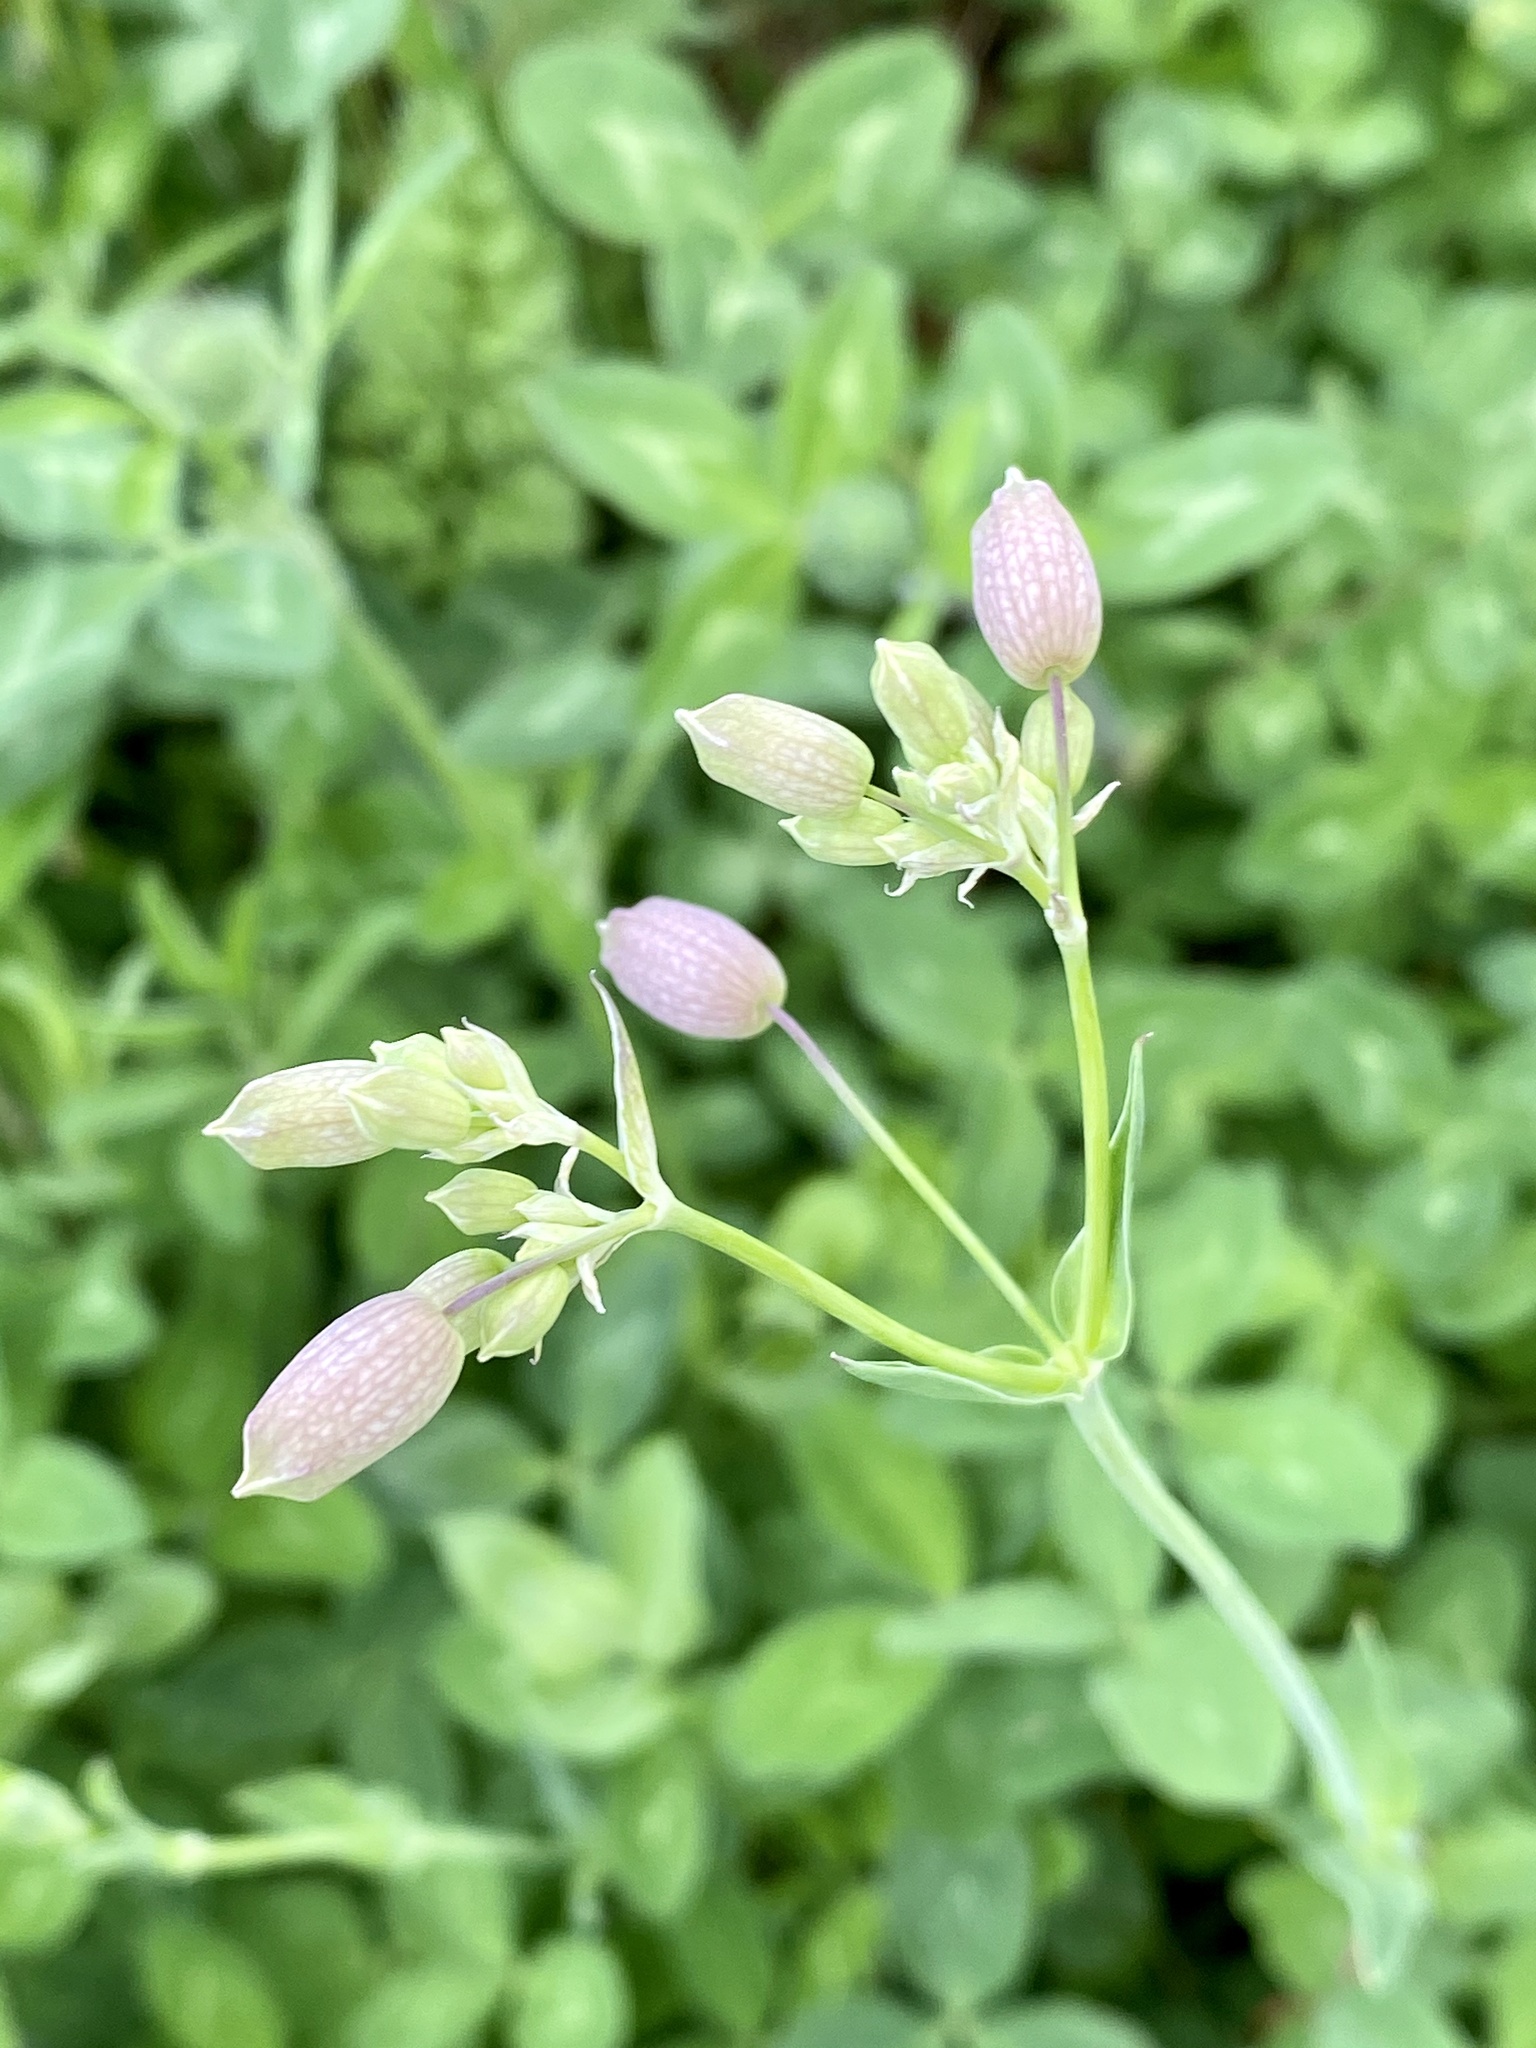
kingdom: Plantae
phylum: Tracheophyta
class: Magnoliopsida
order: Caryophyllales
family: Caryophyllaceae
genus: Silene
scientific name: Silene vulgaris
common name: Bladder campion
